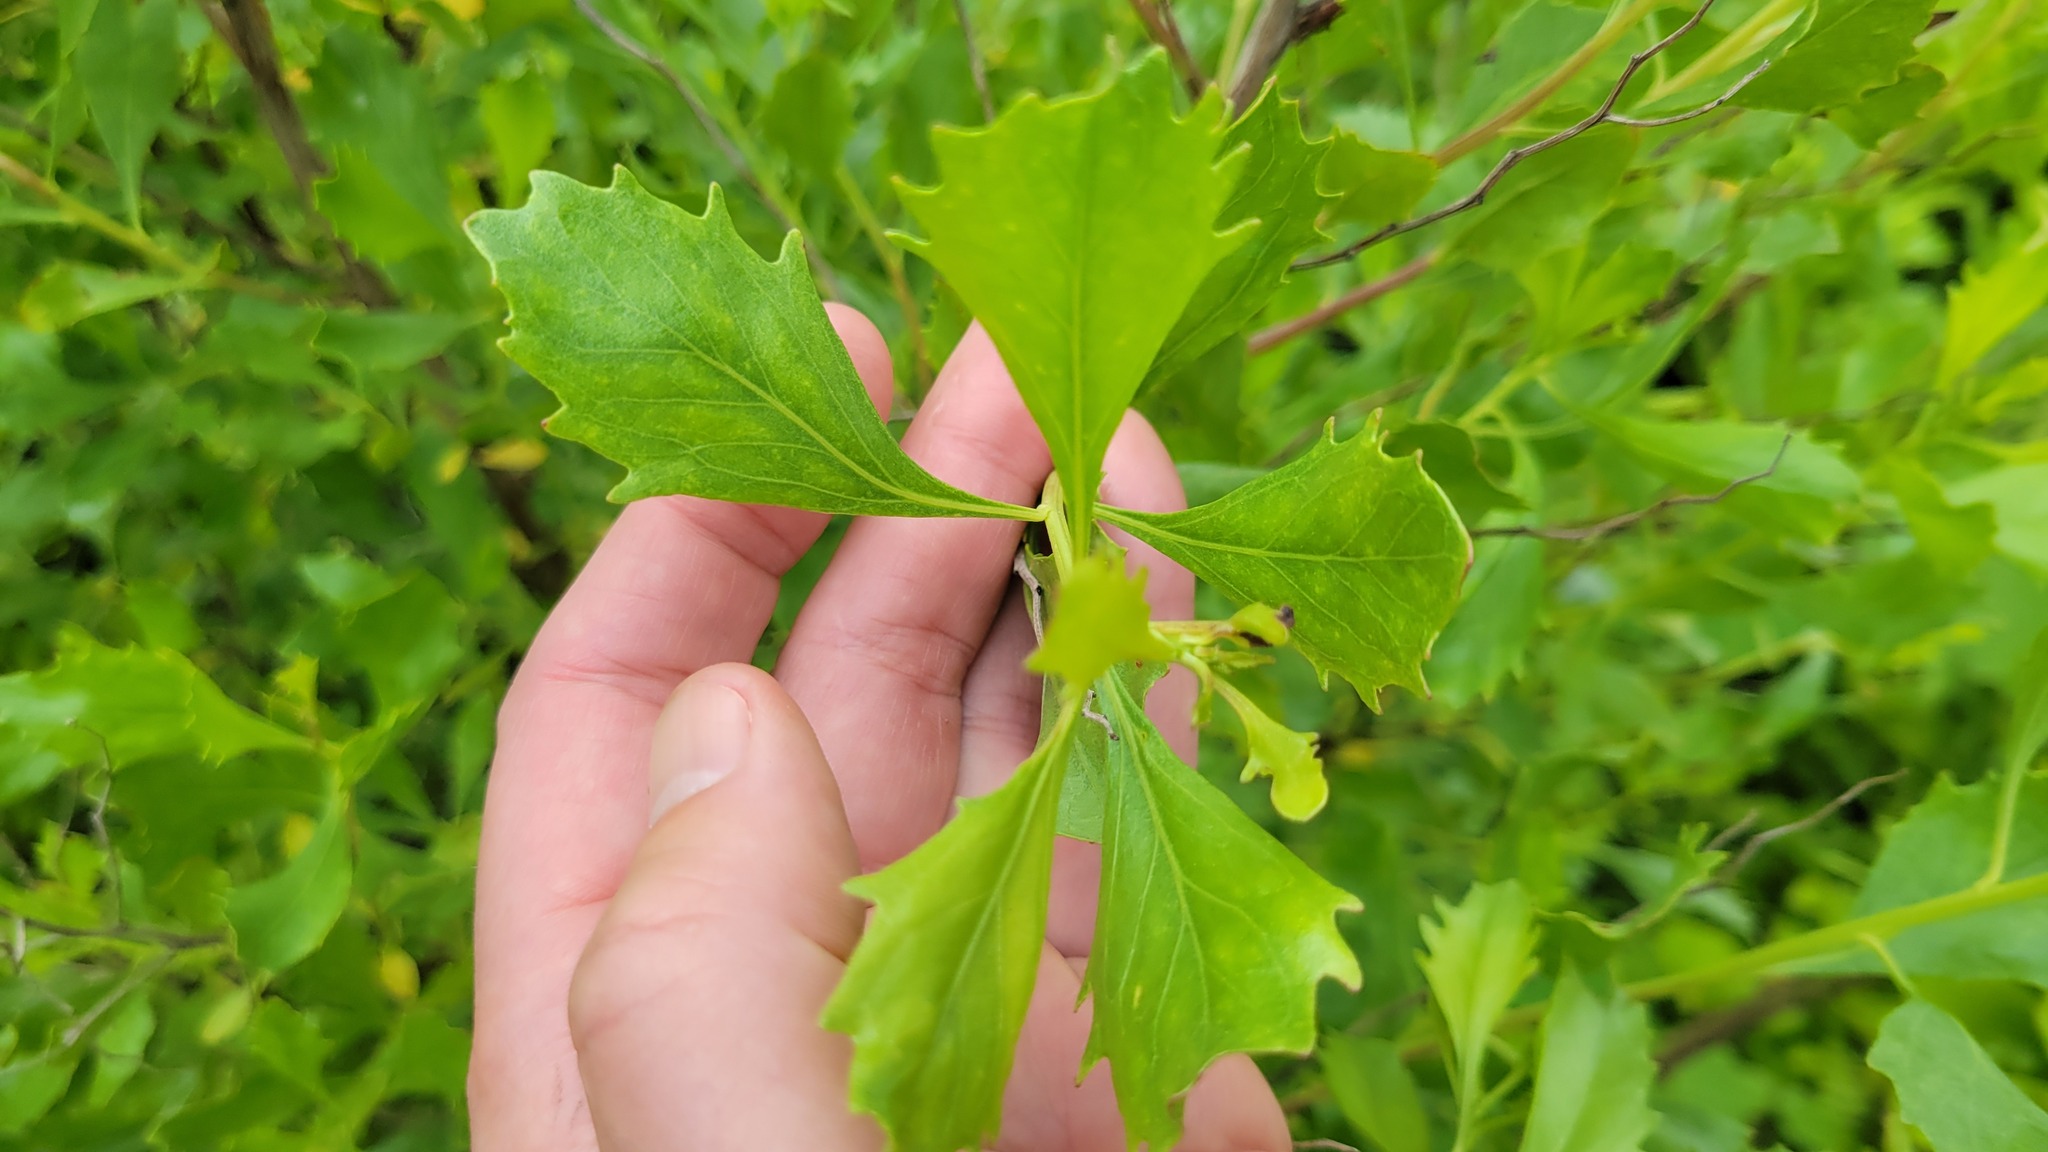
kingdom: Plantae
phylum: Tracheophyta
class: Magnoliopsida
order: Asterales
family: Asteraceae
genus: Baccharis
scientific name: Baccharis halimifolia
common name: Eastern baccharis
